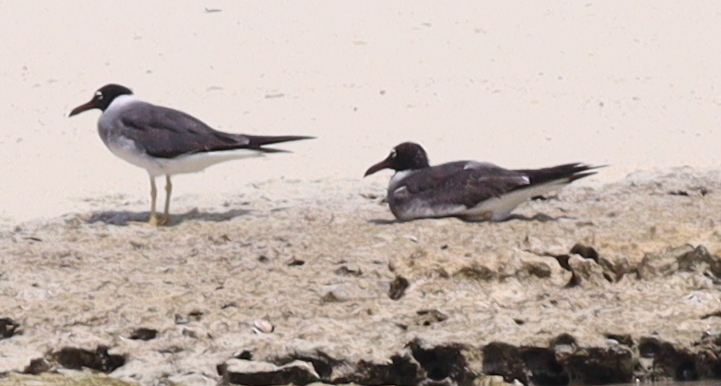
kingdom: Animalia
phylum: Chordata
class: Aves
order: Charadriiformes
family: Laridae
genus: Ichthyaetus
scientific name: Ichthyaetus leucophthalmus
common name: White-eyed gull
